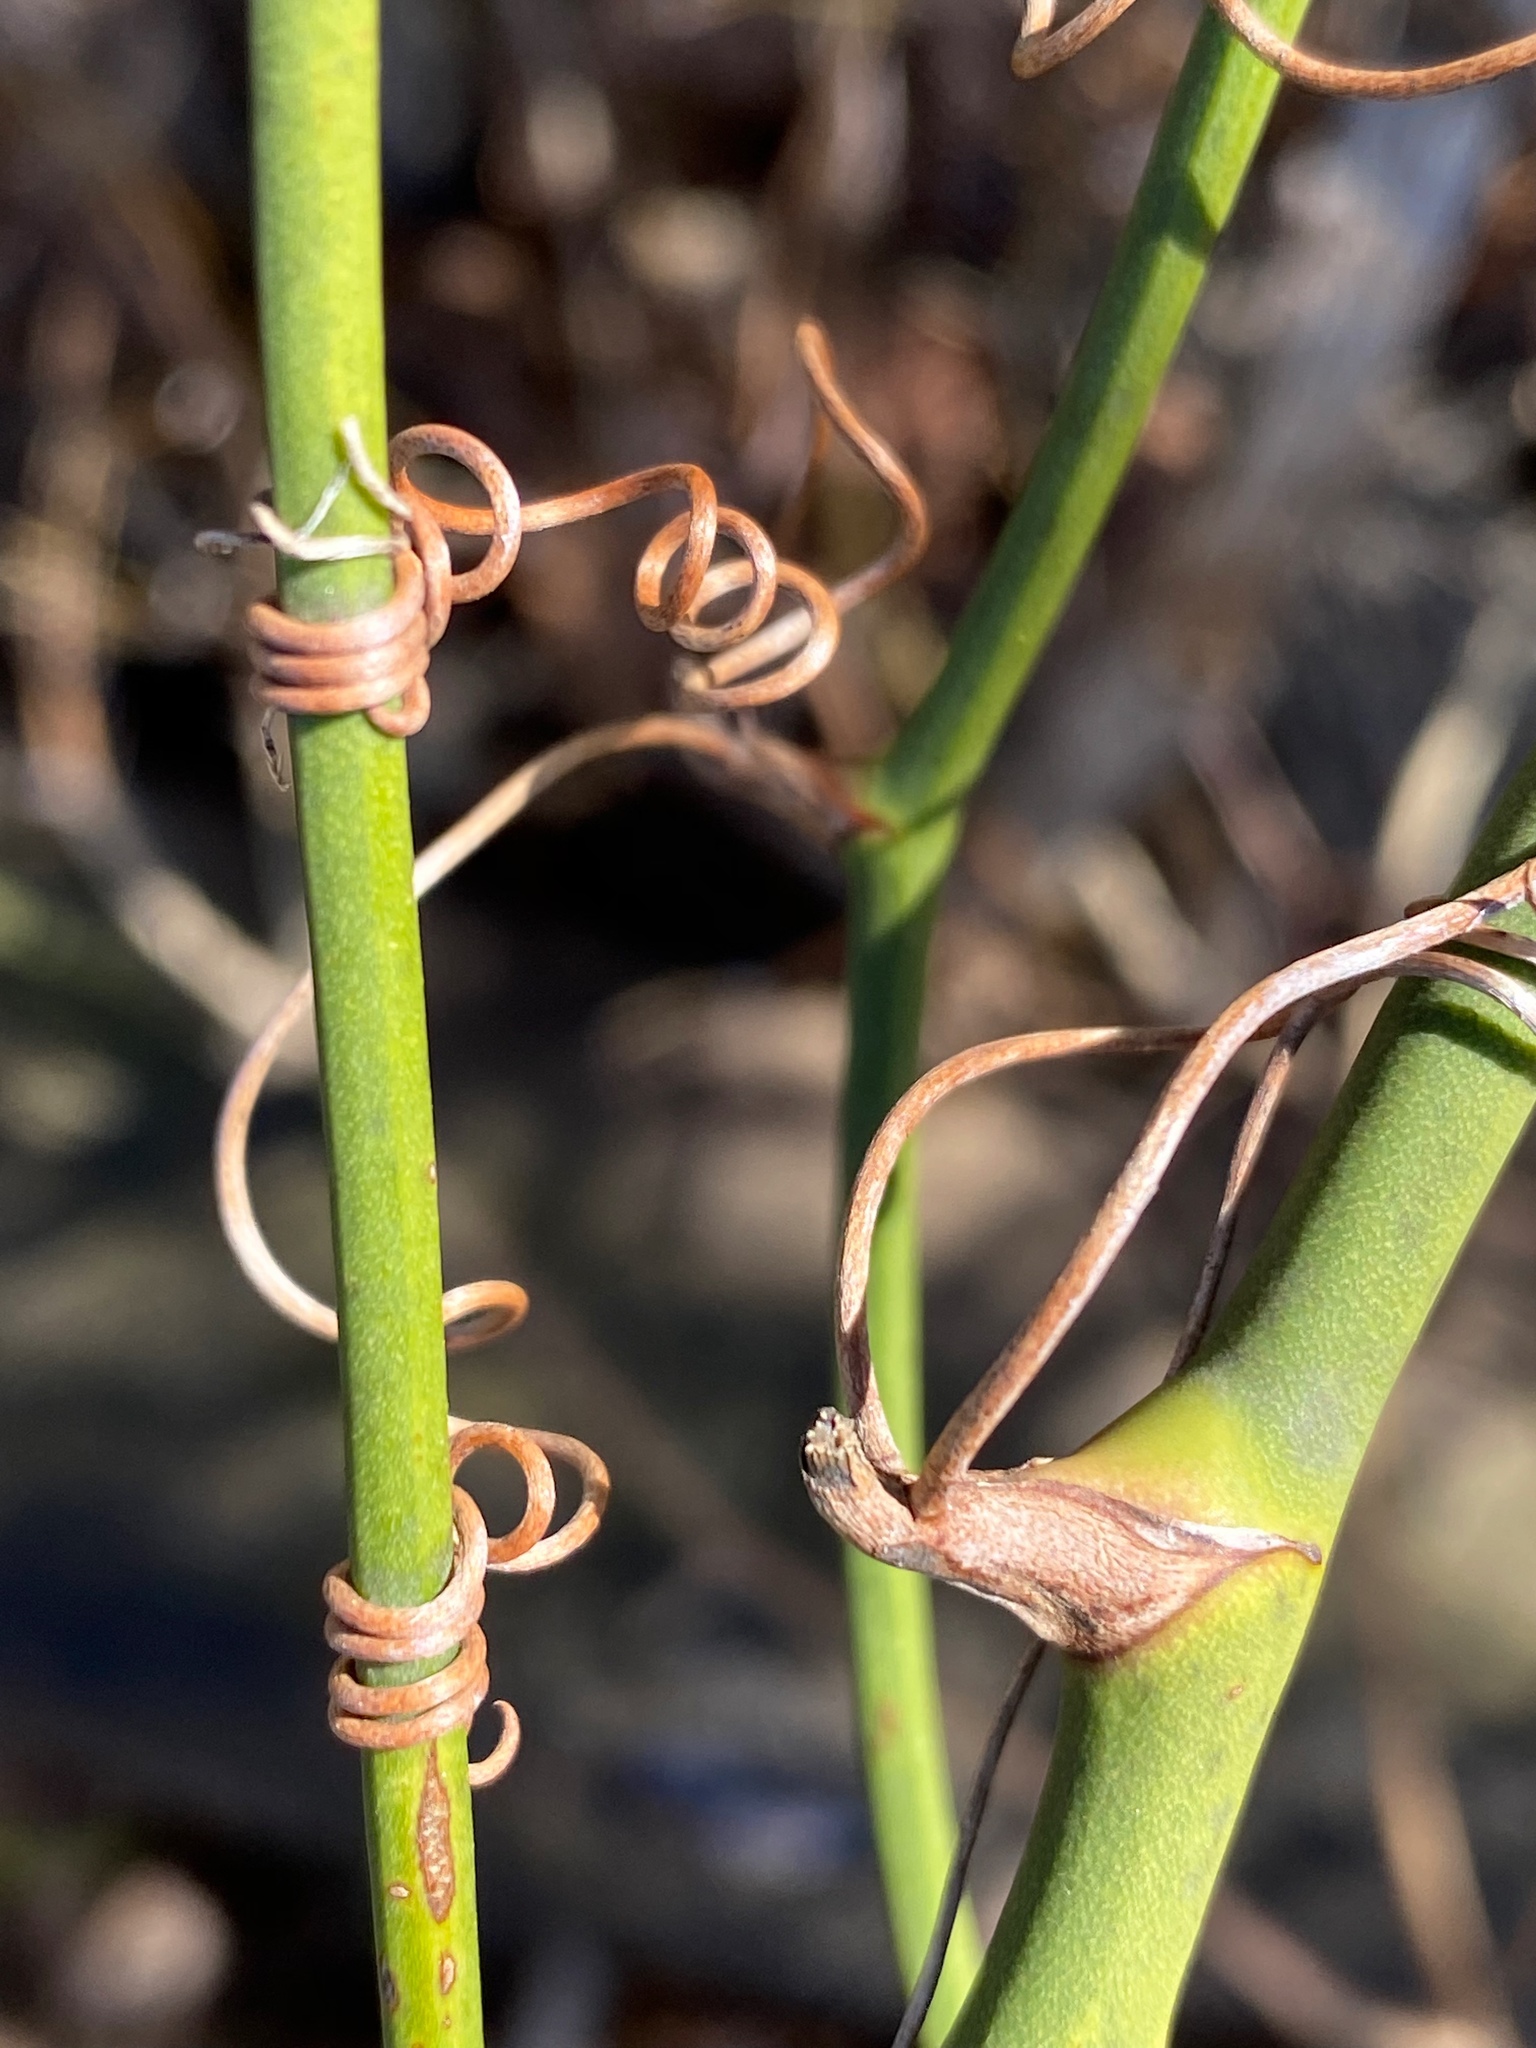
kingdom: Plantae
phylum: Tracheophyta
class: Liliopsida
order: Liliales
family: Smilacaceae
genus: Smilax
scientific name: Smilax rotundifolia
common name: Bullbriar
